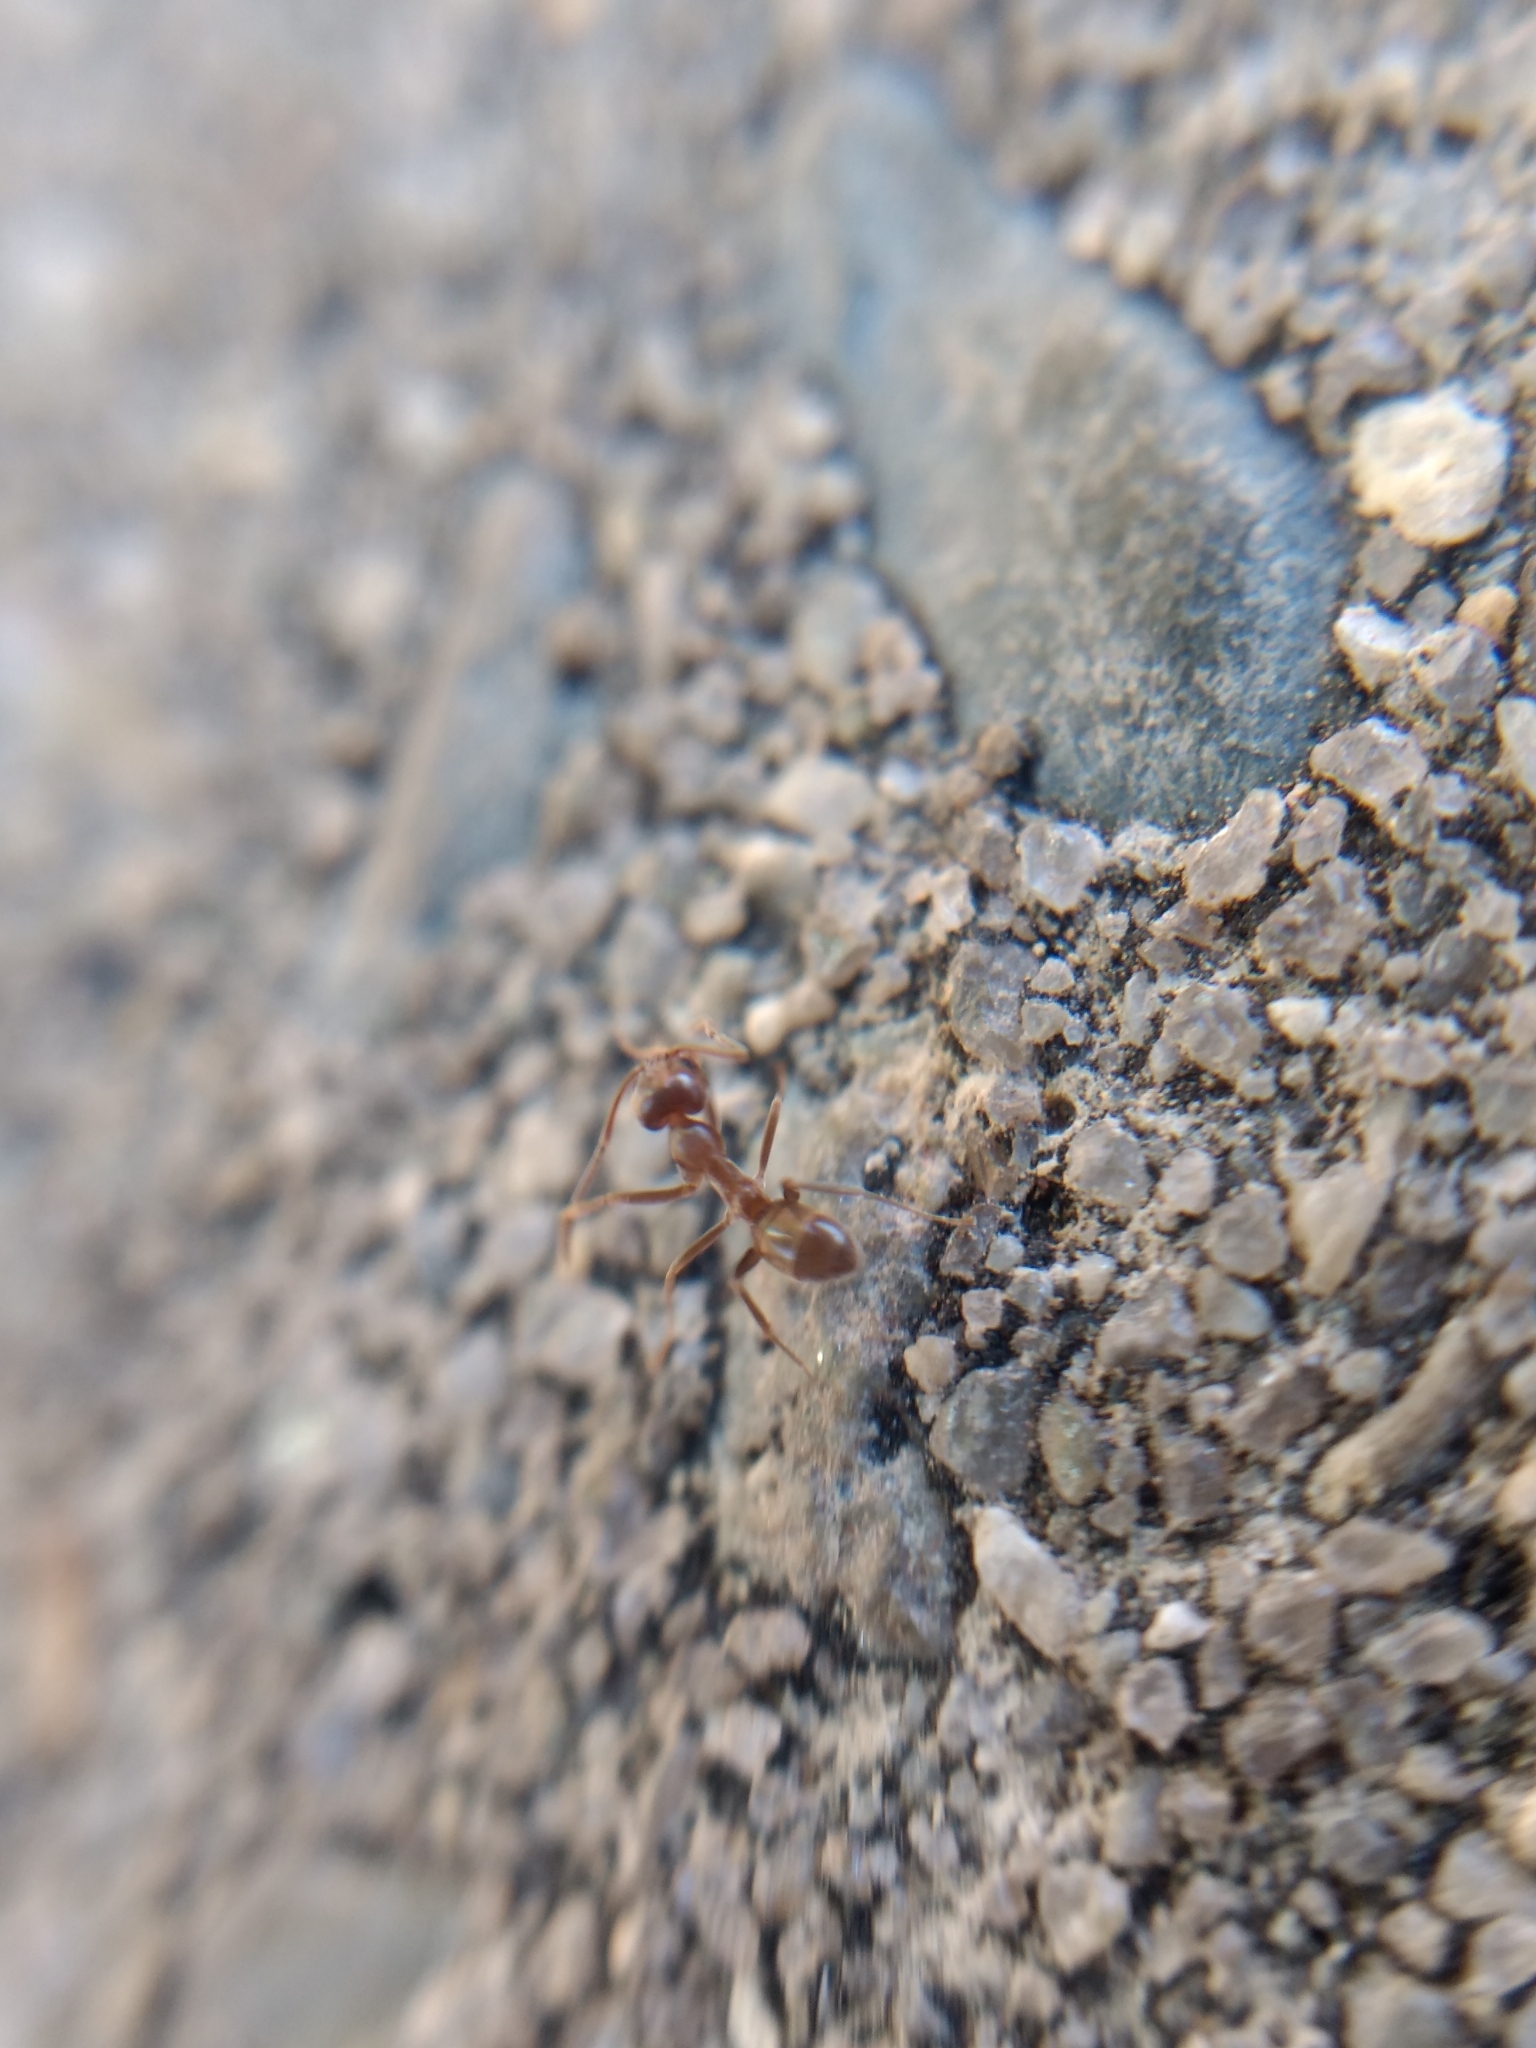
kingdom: Animalia
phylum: Arthropoda
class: Insecta
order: Hymenoptera
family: Formicidae
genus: Linepithema
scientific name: Linepithema humile
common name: Argentine ant
